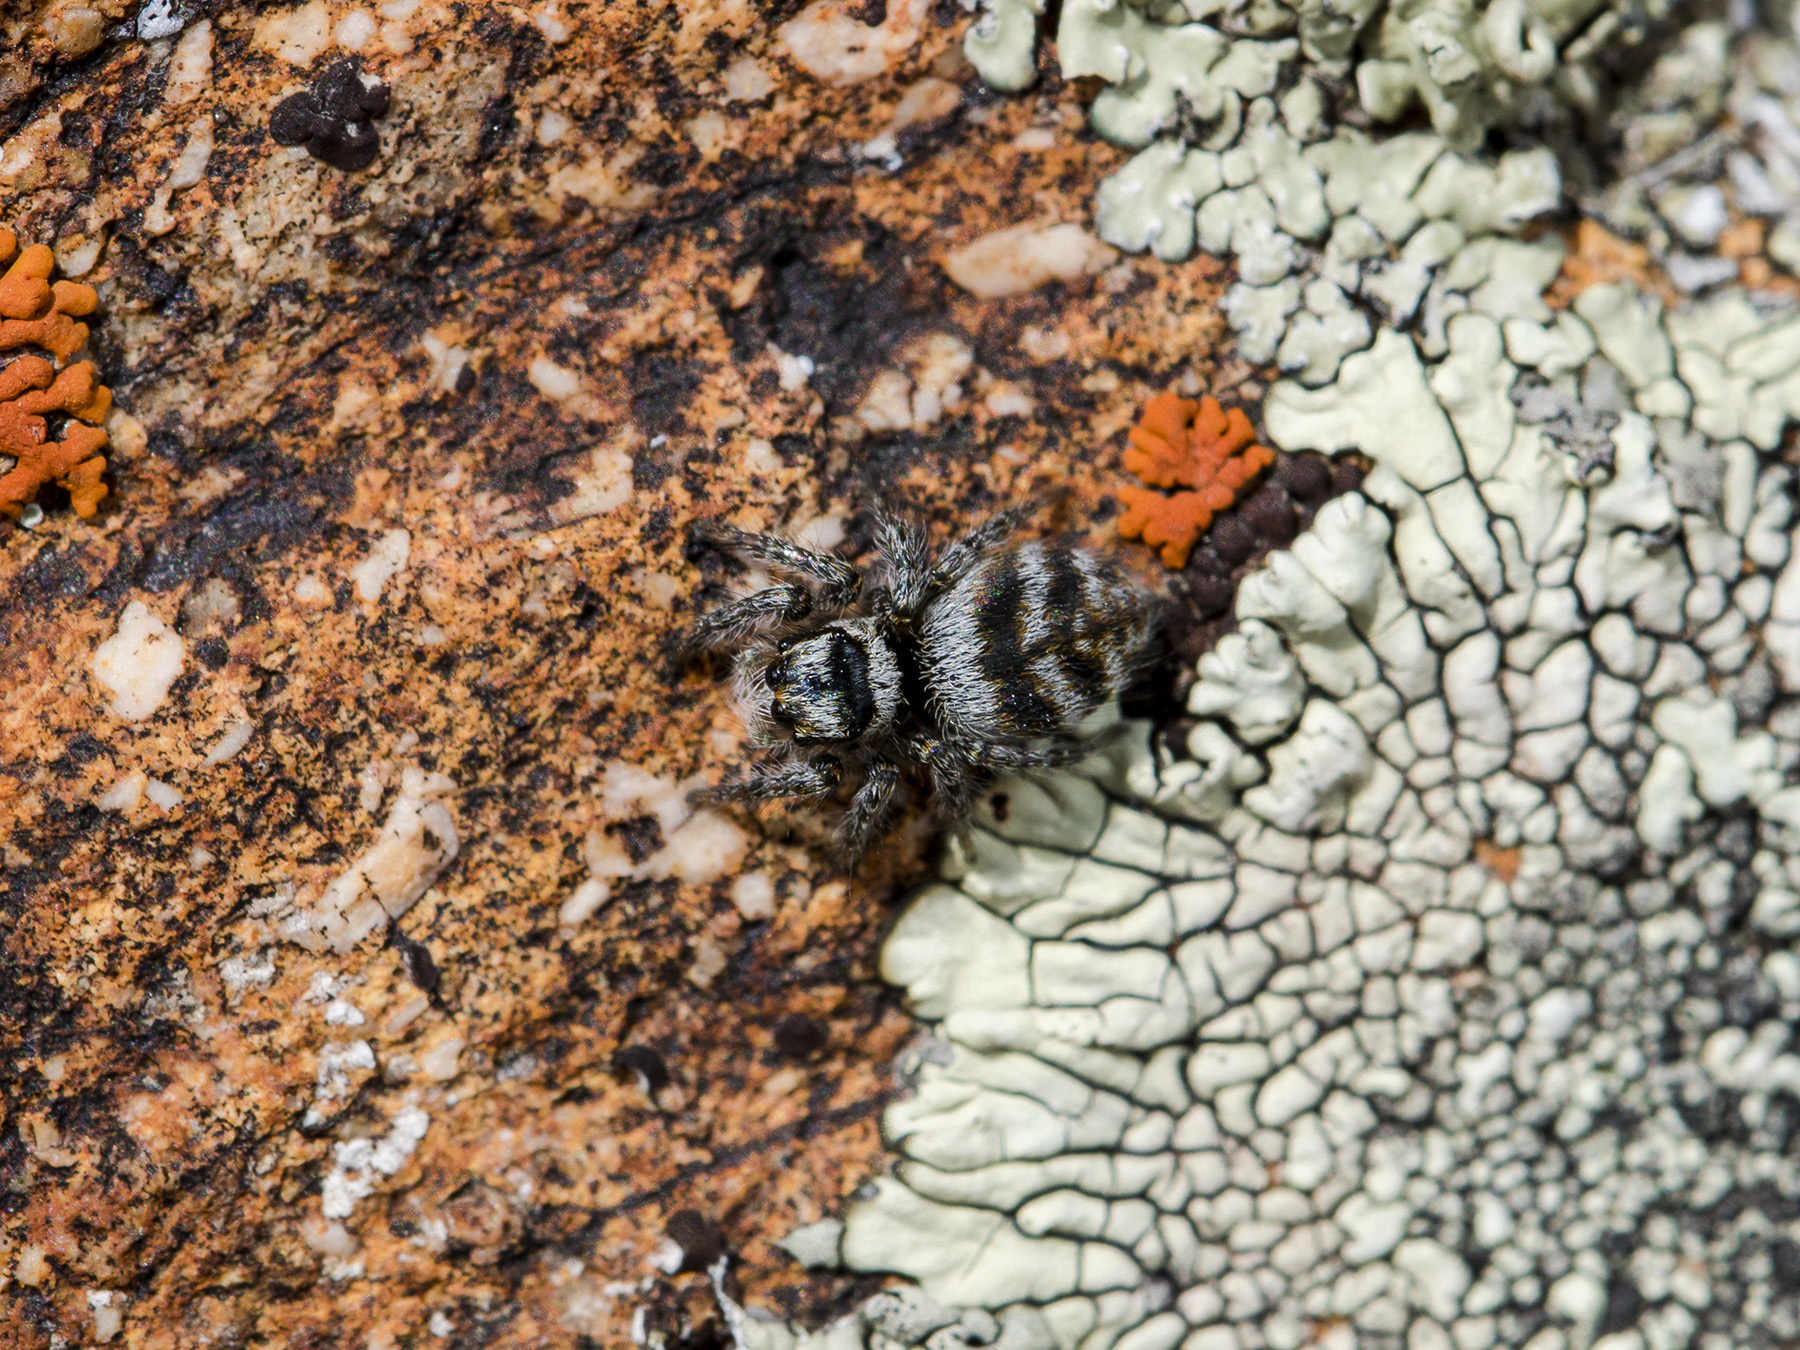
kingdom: Animalia
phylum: Arthropoda
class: Arachnida
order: Araneae
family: Salticidae
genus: Philaeus
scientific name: Philaeus chrysops
